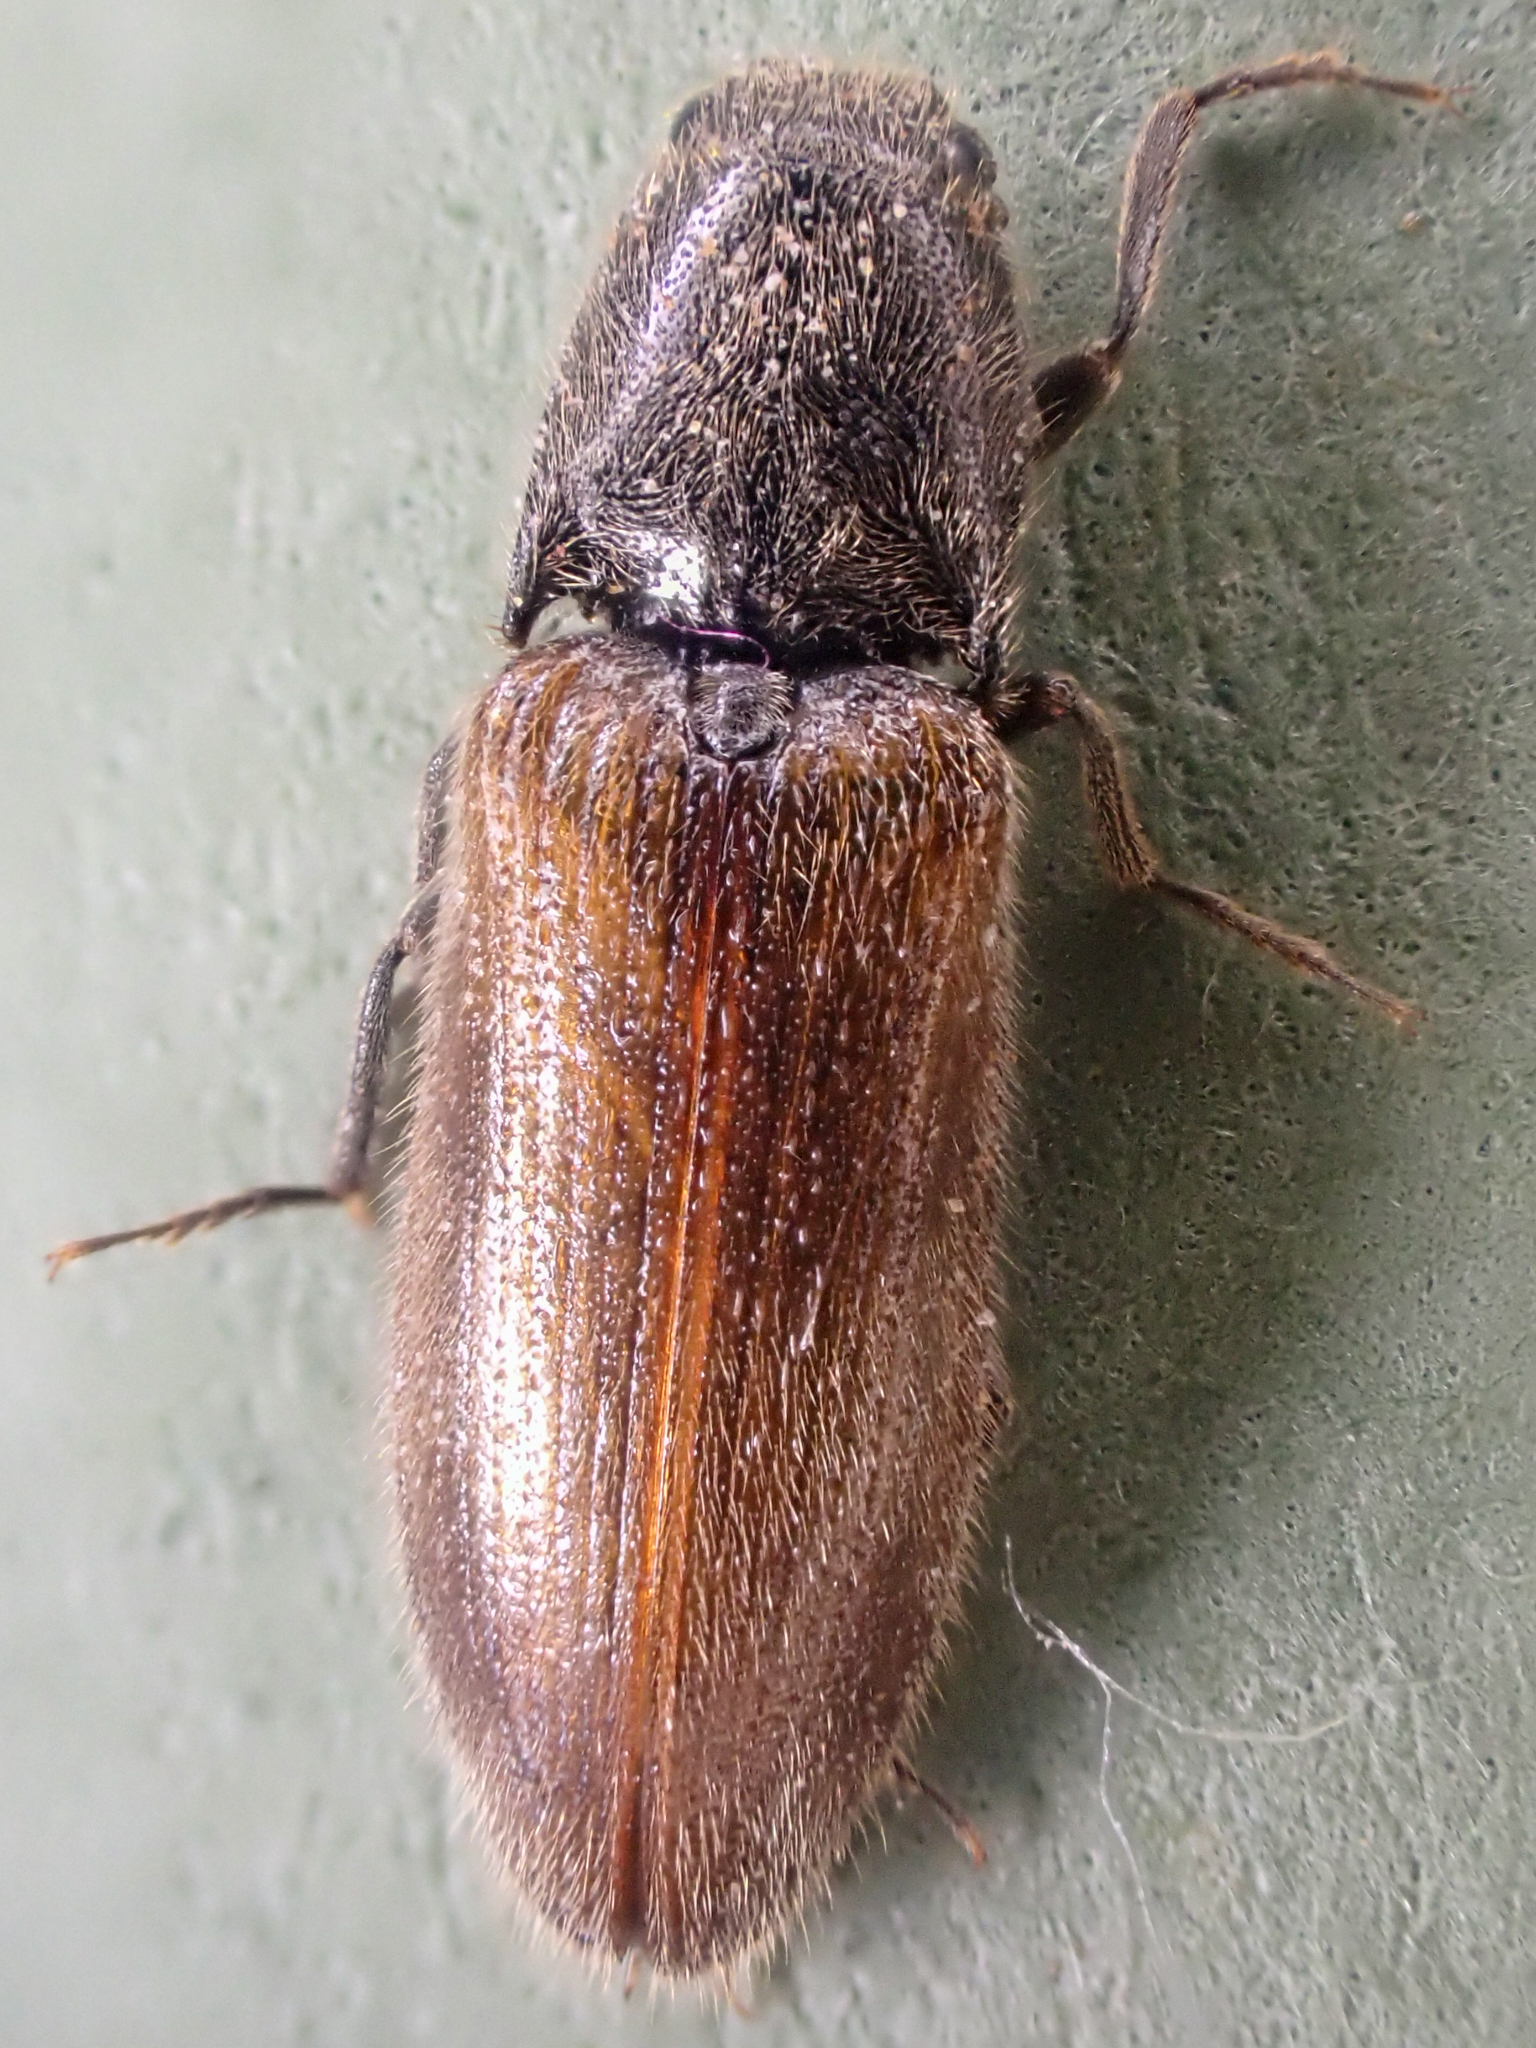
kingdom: Animalia
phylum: Arthropoda
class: Insecta
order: Coleoptera
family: Elateridae
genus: Hemicrepidius
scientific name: Hemicrepidius pallidipennis
